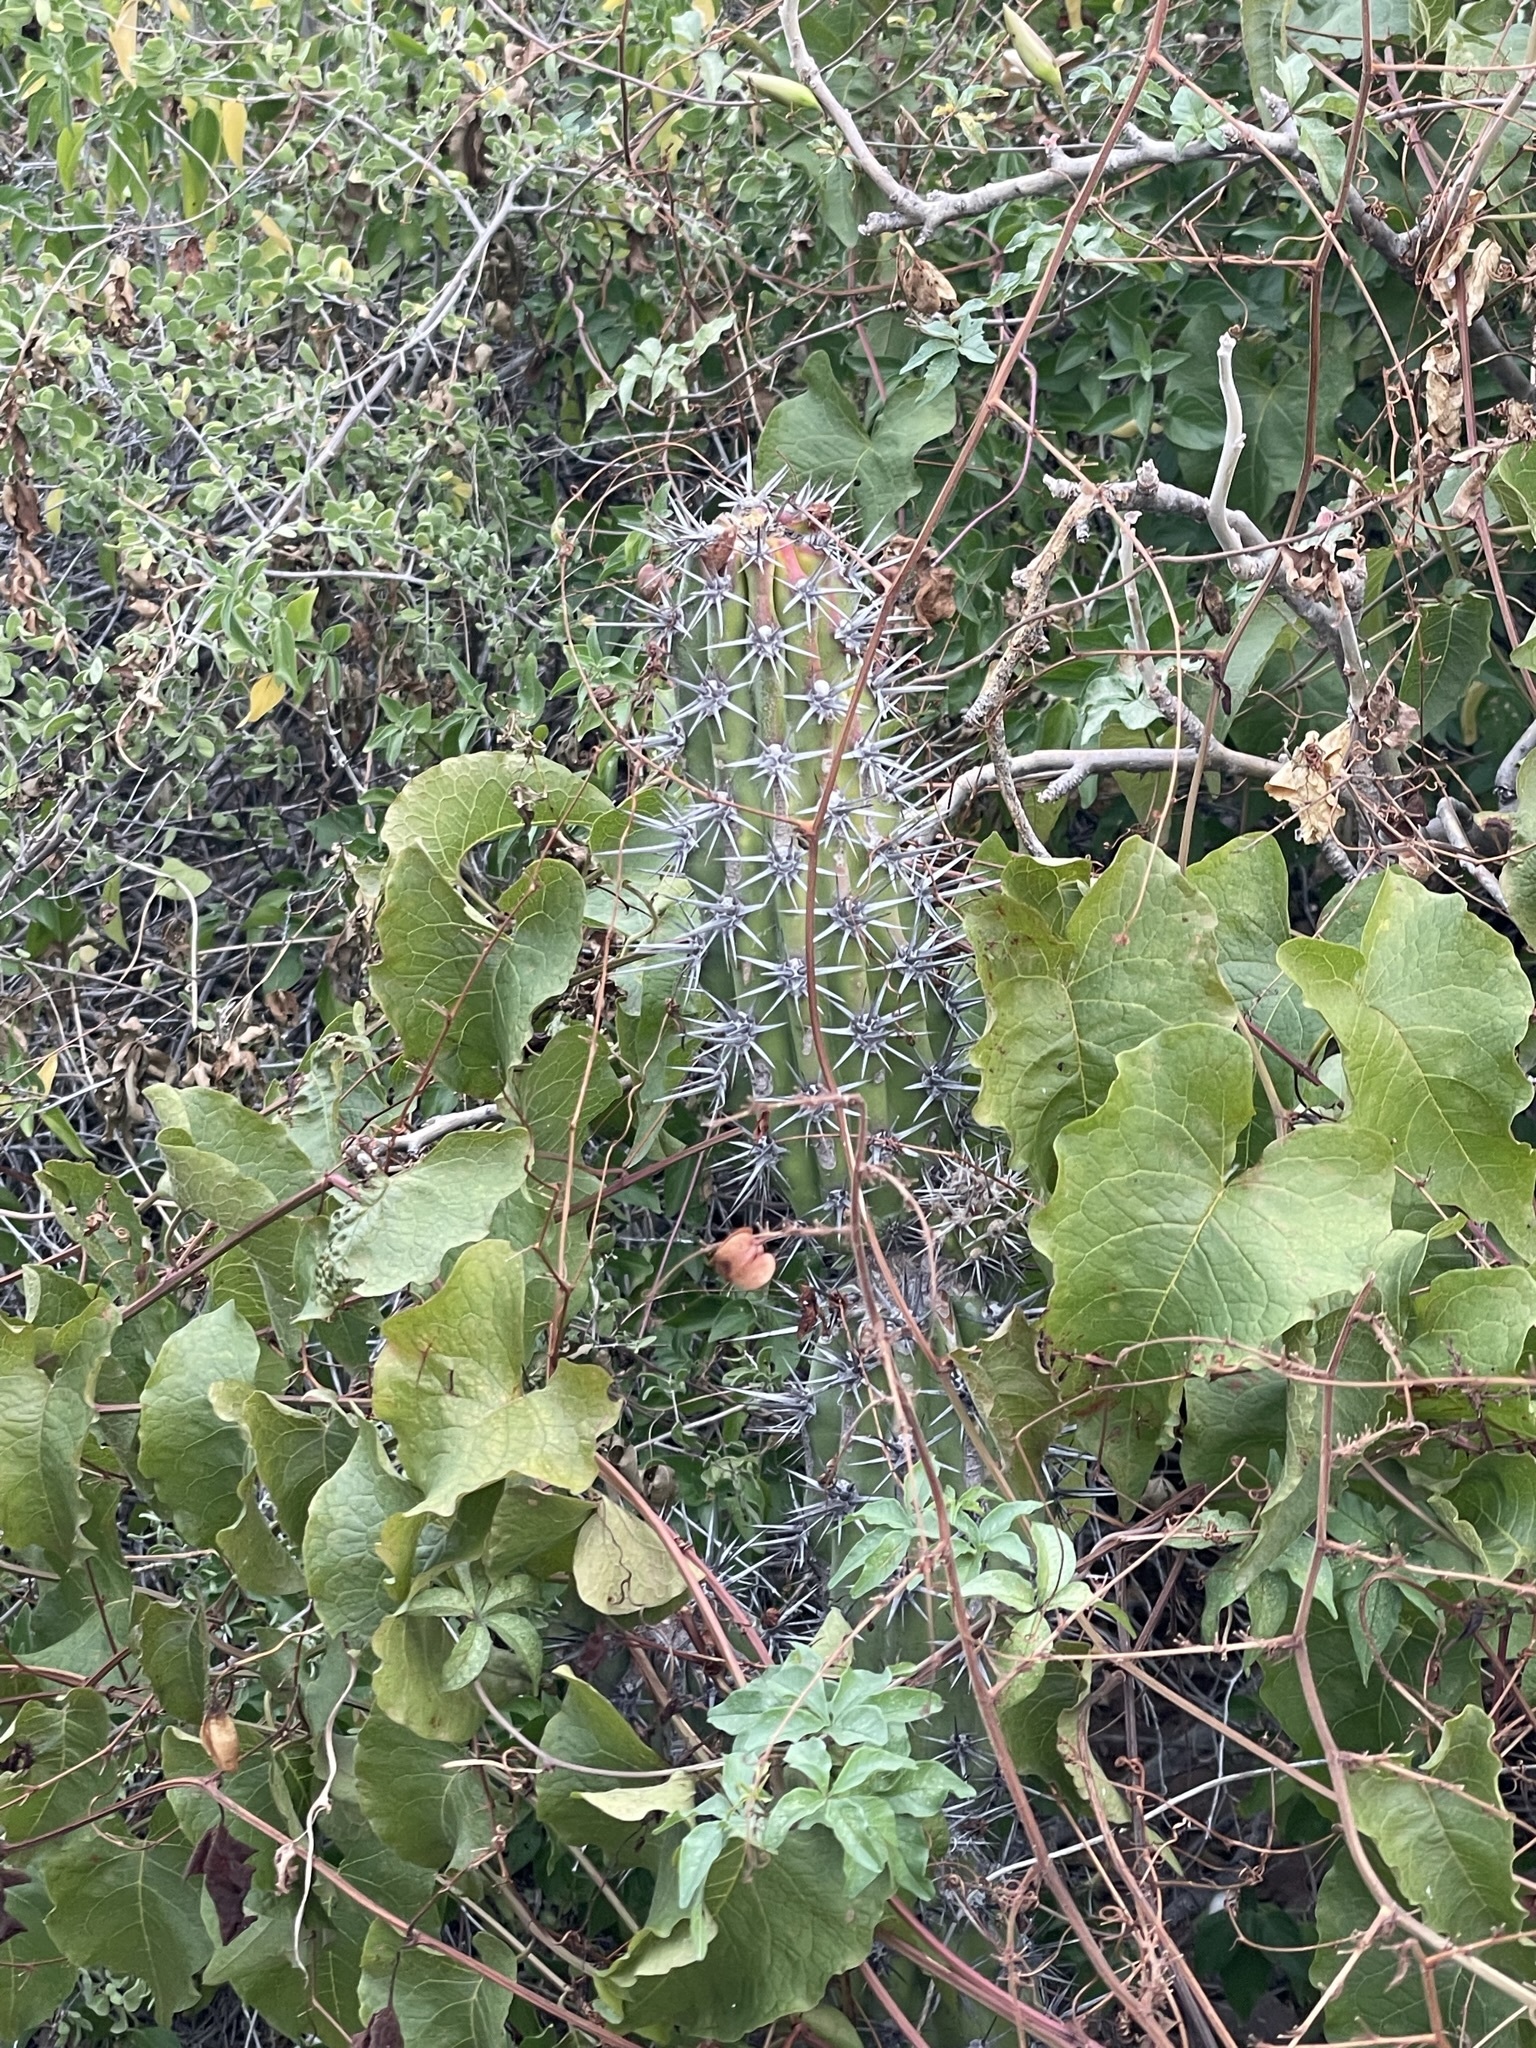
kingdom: Plantae
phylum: Tracheophyta
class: Magnoliopsida
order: Caryophyllales
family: Cactaceae
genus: Stenocereus
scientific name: Stenocereus gummosus
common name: Dagger cactus
